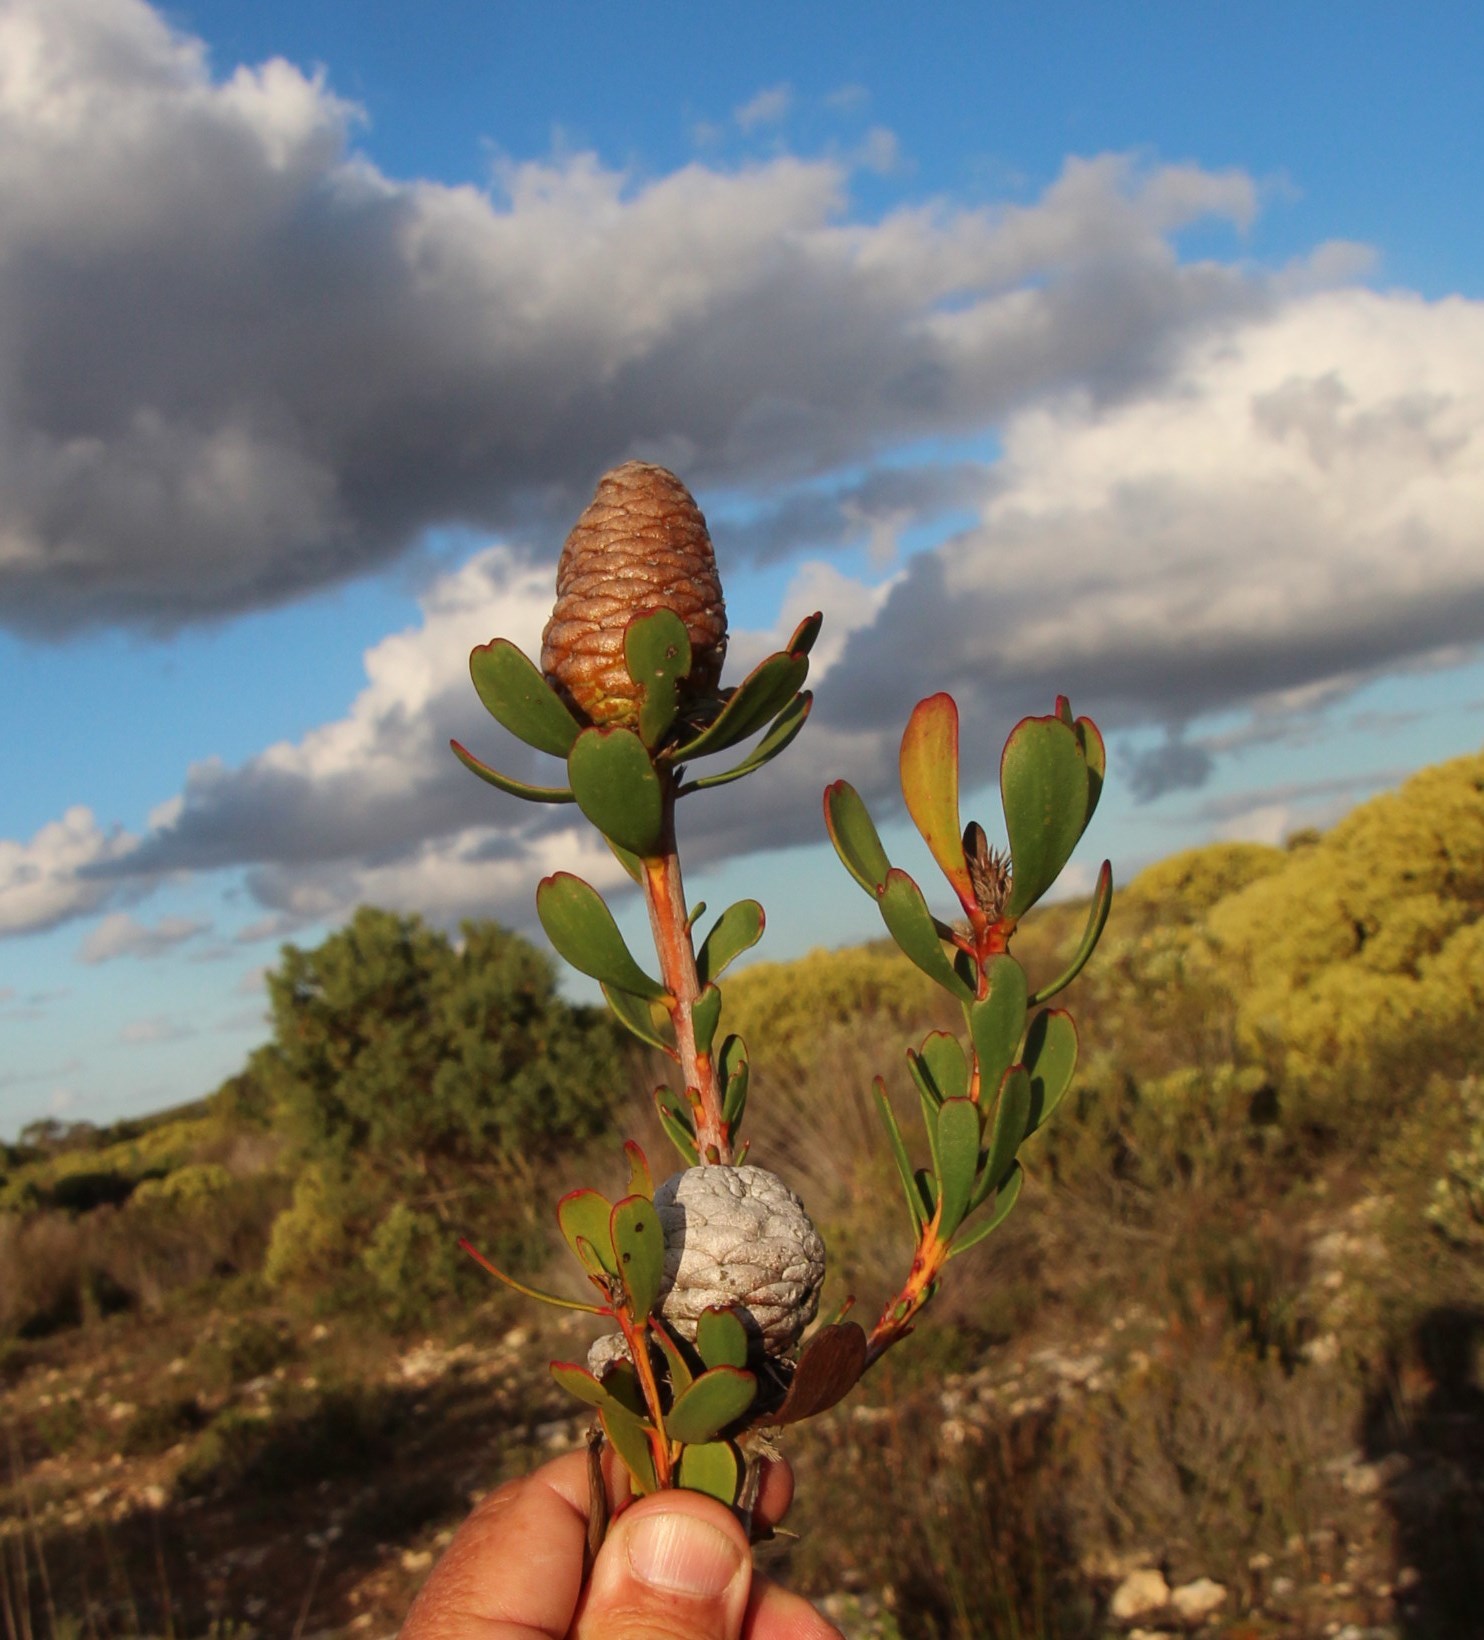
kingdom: Plantae
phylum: Tracheophyta
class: Magnoliopsida
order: Proteales
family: Proteaceae
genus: Leucadendron
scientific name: Leucadendron muirii
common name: Silver-ball conebush
